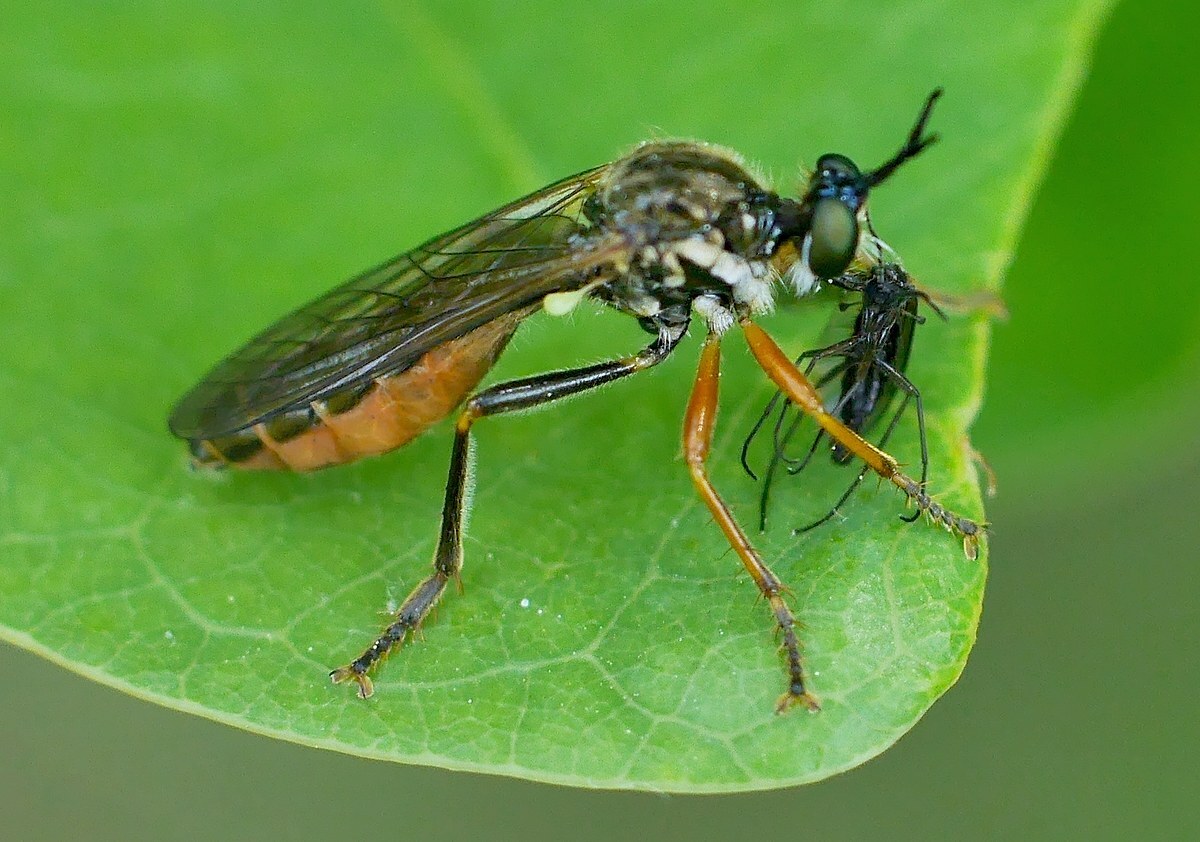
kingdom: Animalia
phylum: Arthropoda
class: Insecta
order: Diptera
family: Asilidae
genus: Dioctria
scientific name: Dioctria rufipes
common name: Common red-legged robberfly
